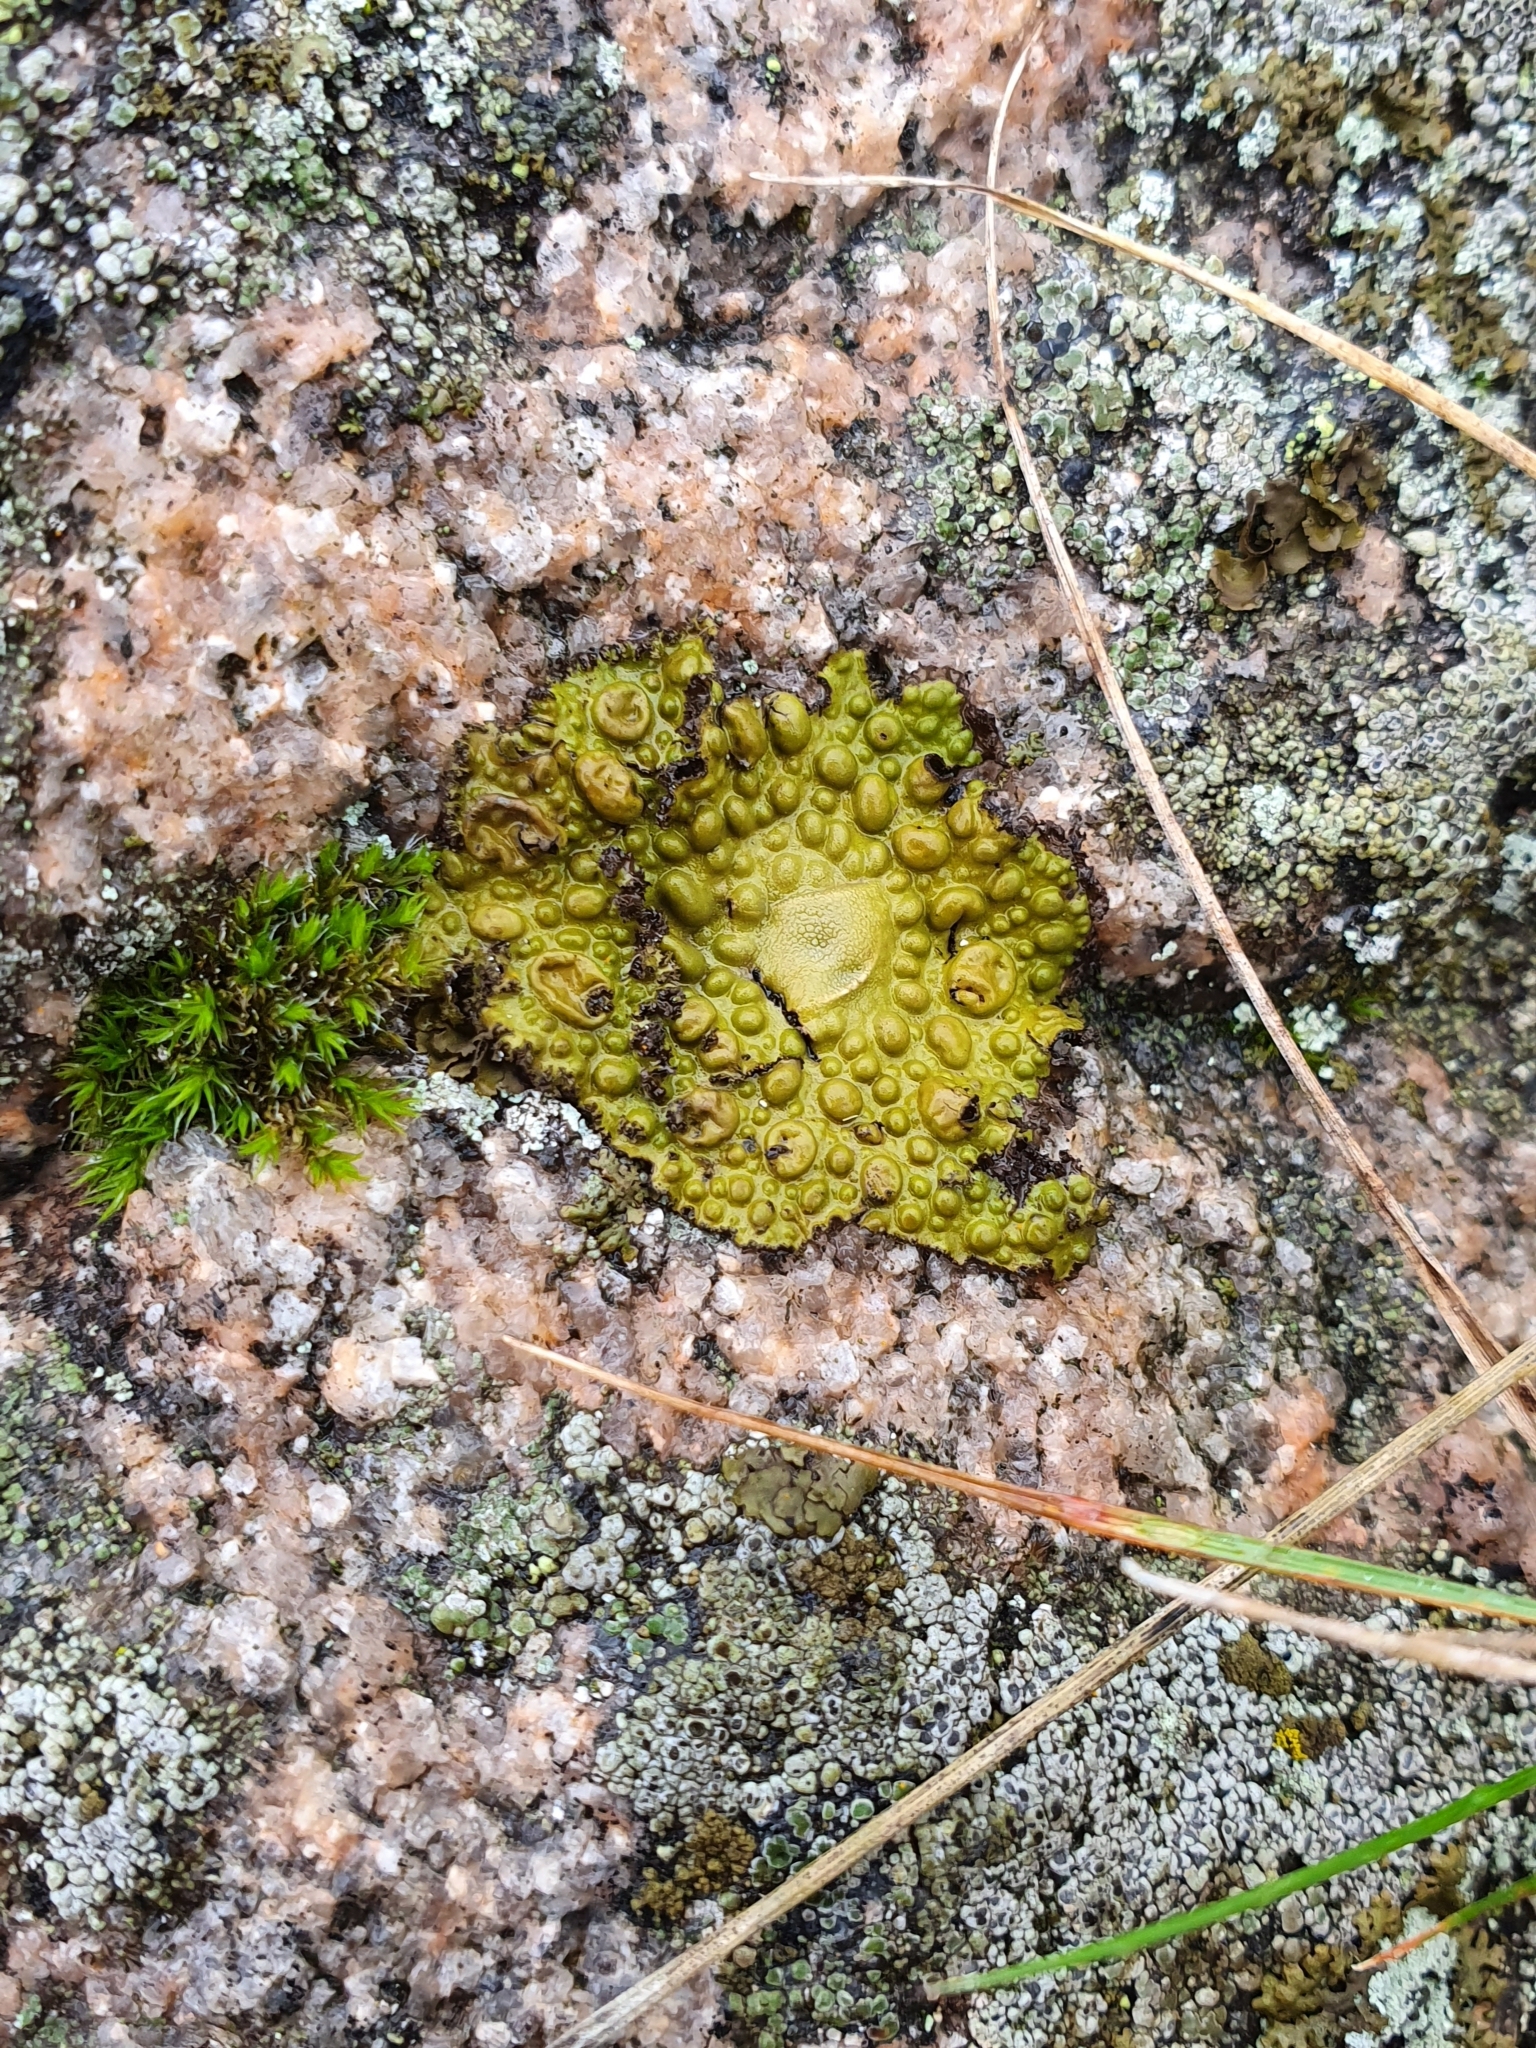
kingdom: Fungi
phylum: Ascomycota
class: Lecanoromycetes
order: Umbilicariales
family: Umbilicariaceae
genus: Lasallia
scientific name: Lasallia pustulata
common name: Blistered toadskin lichen
